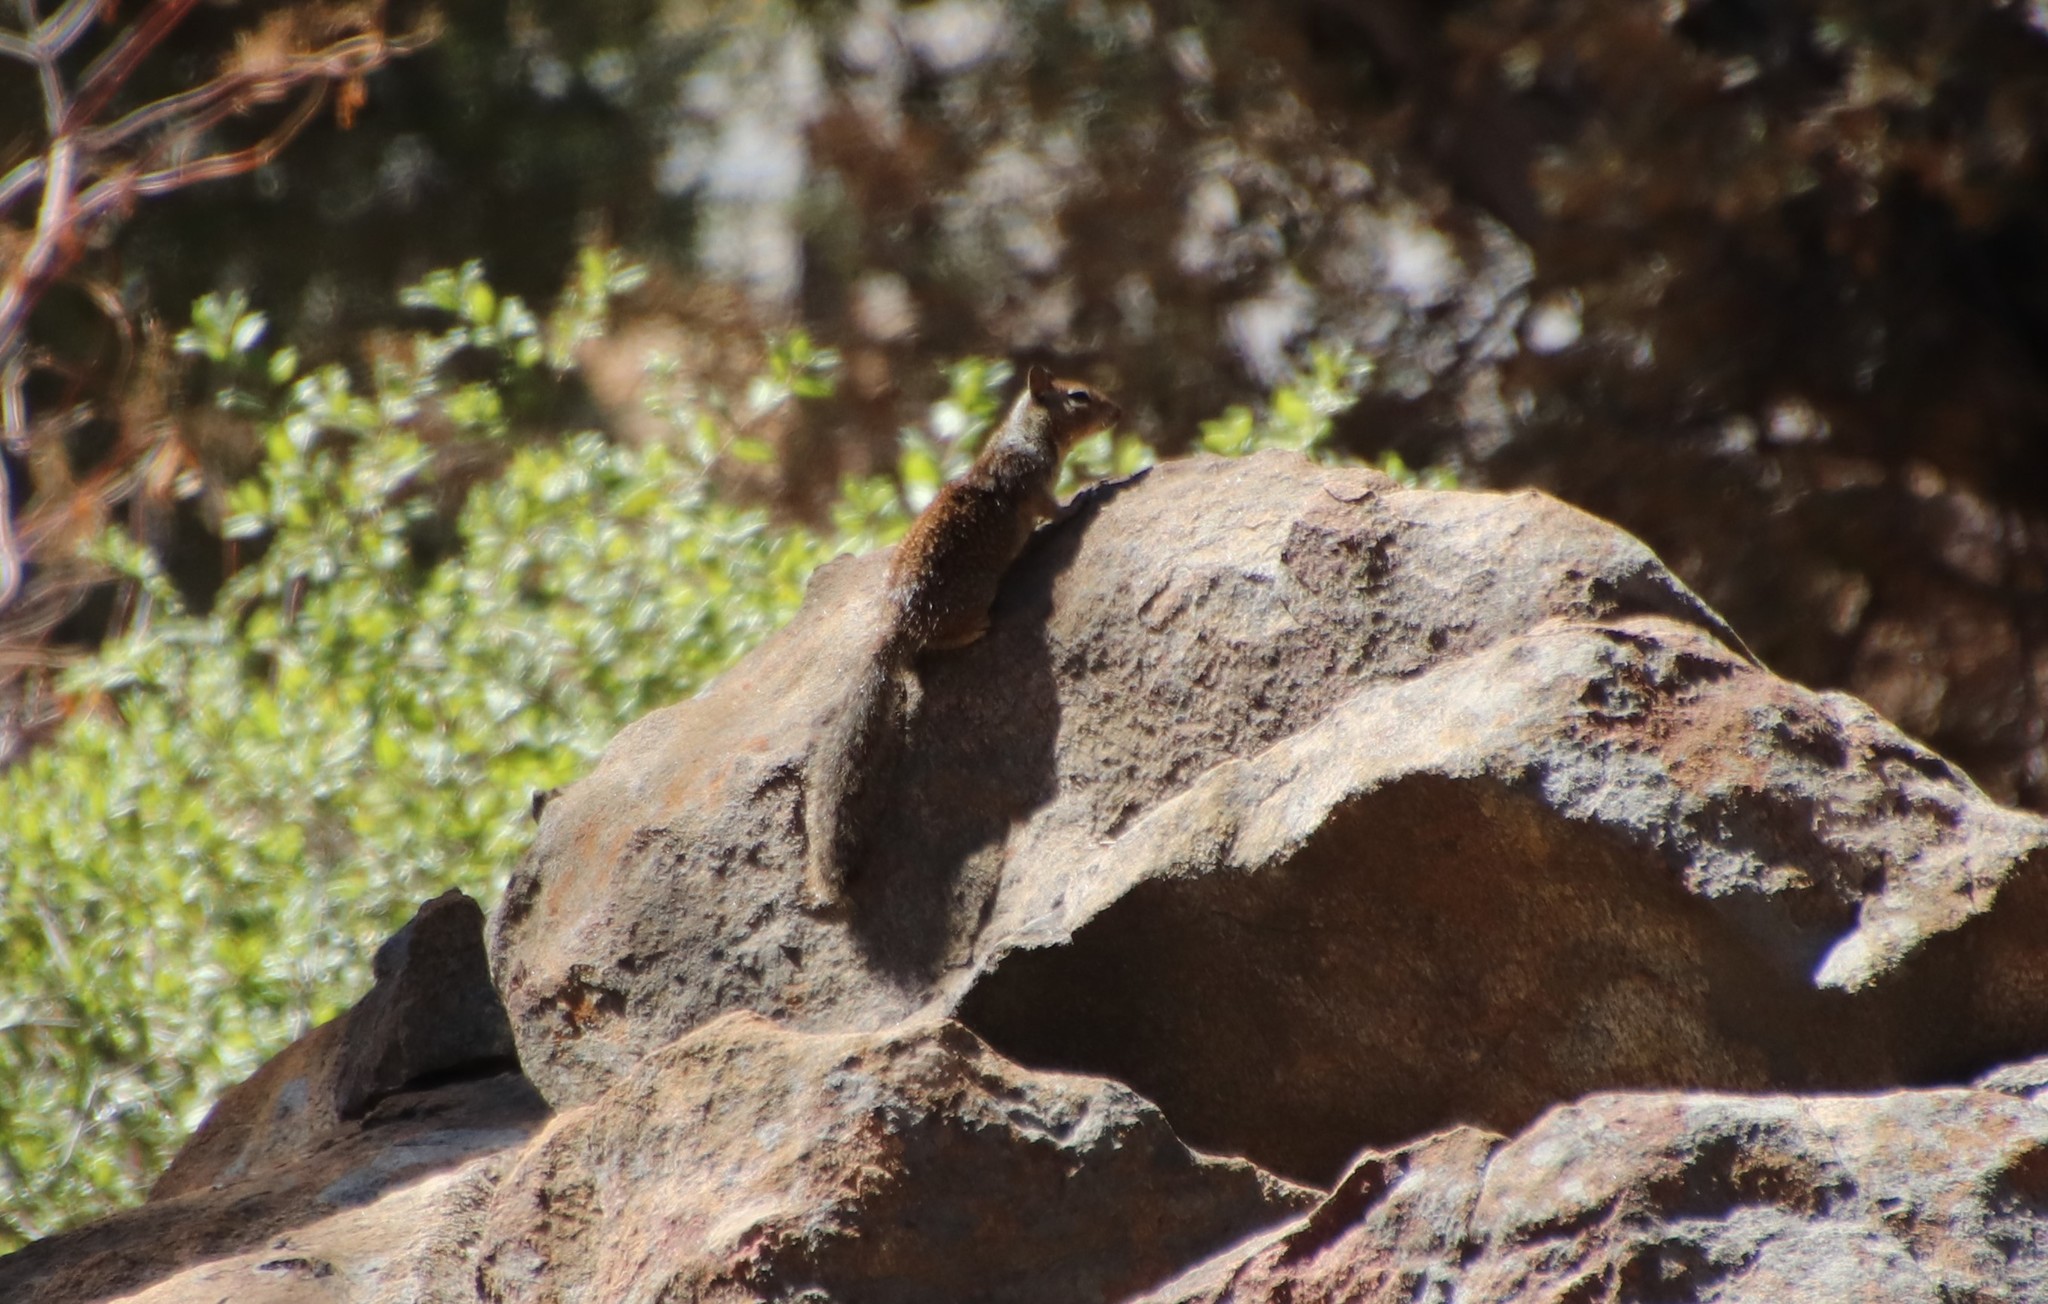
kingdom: Animalia
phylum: Chordata
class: Mammalia
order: Rodentia
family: Sciuridae
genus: Otospermophilus
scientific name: Otospermophilus beecheyi
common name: California ground squirrel
